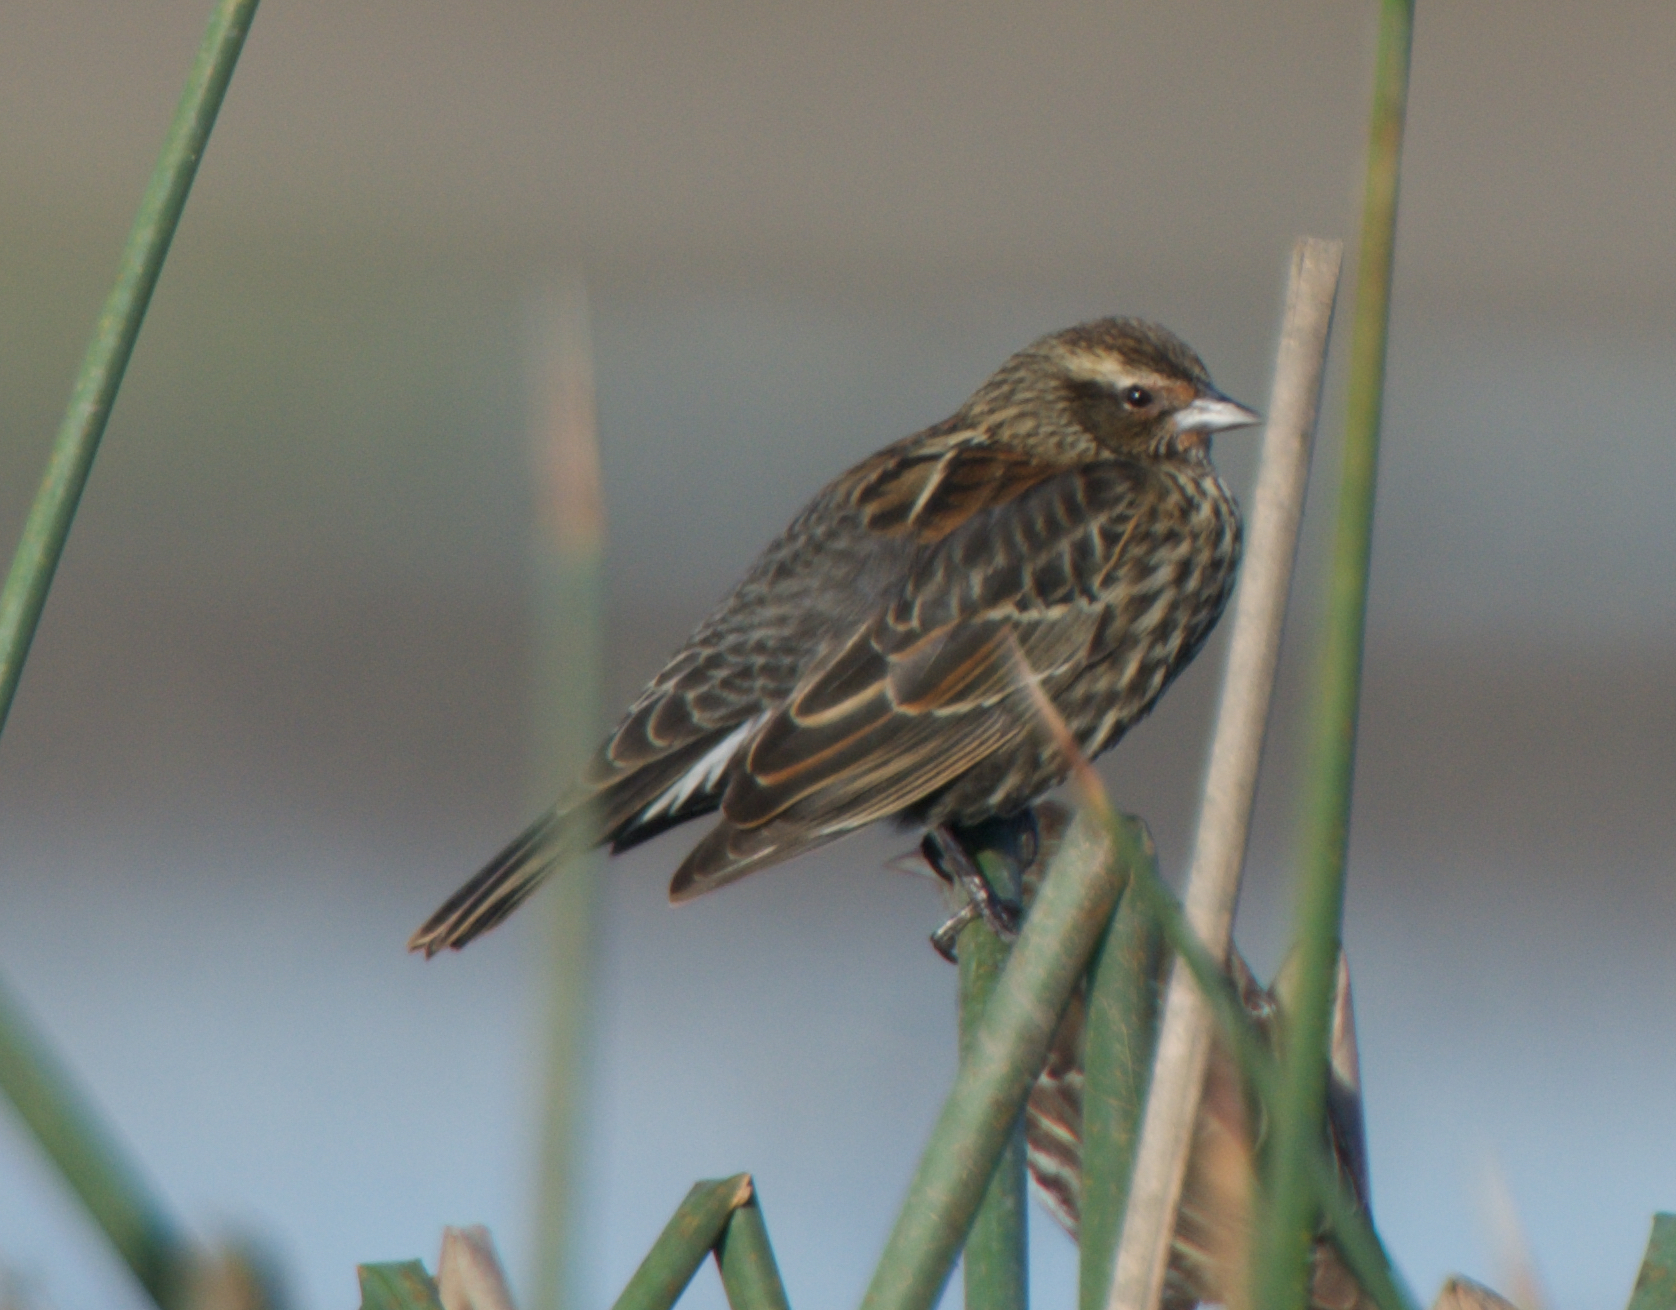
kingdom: Animalia
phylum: Chordata
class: Aves
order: Passeriformes
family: Icteridae
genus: Agelaius
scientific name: Agelaius phoeniceus
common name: Red-winged blackbird
